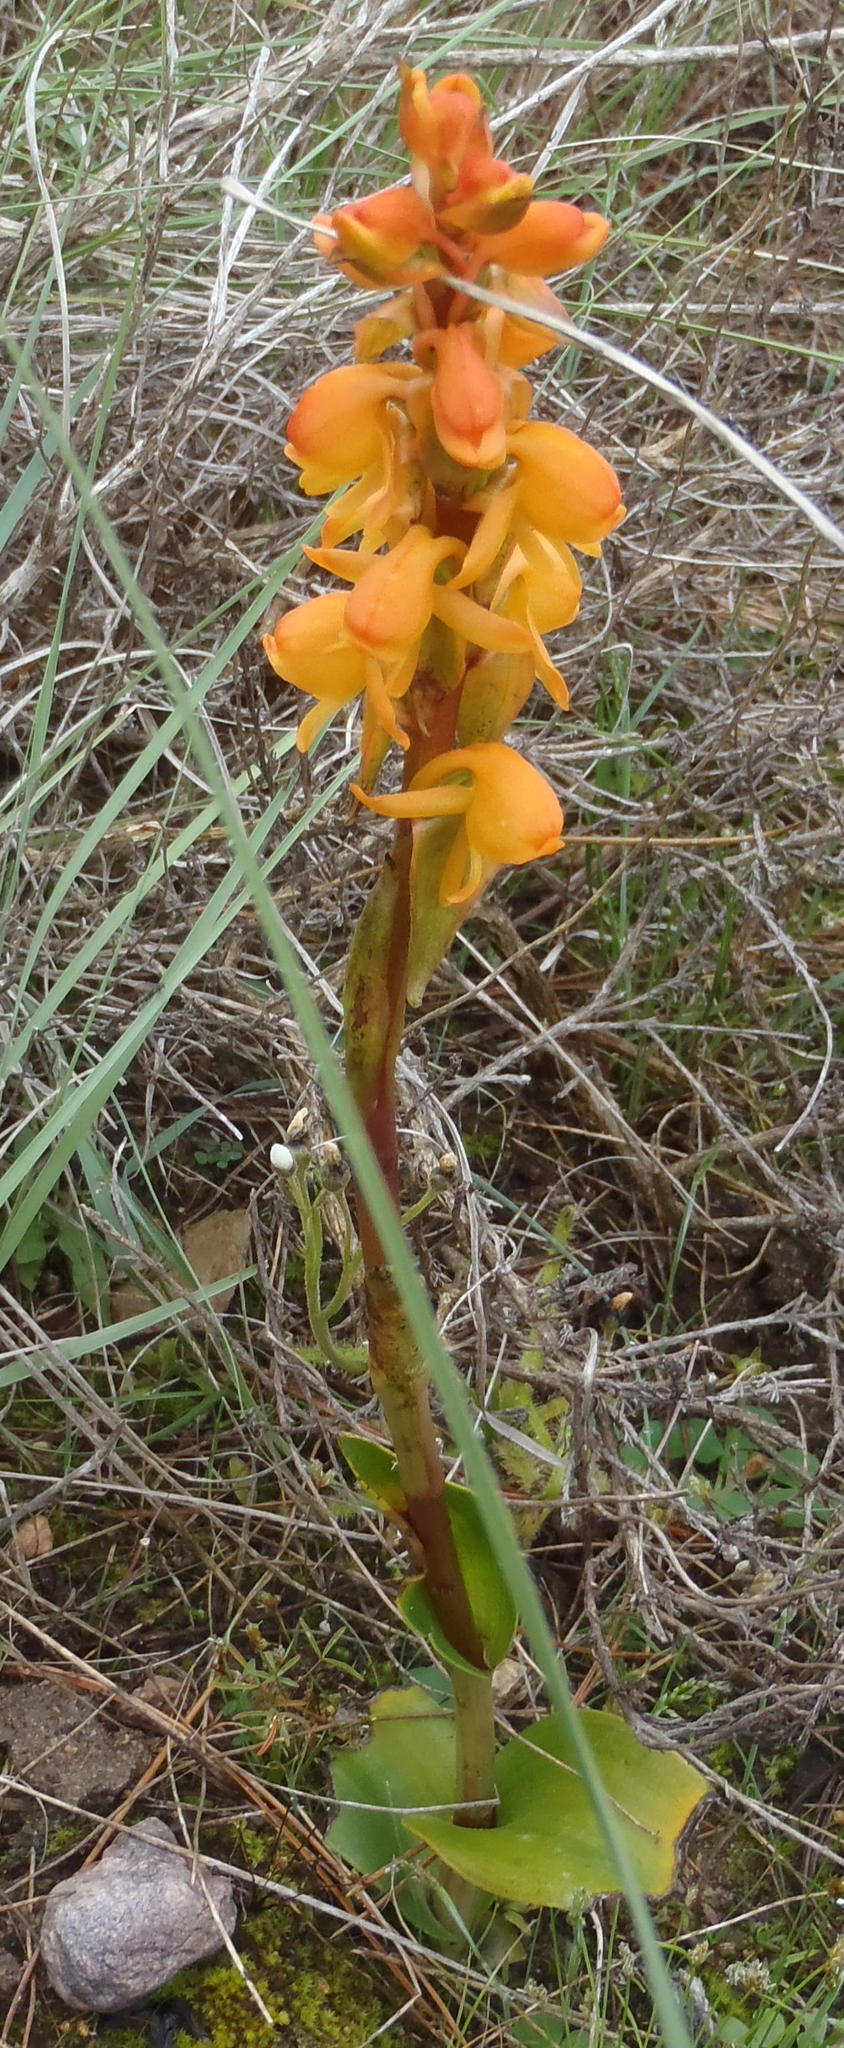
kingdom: Plantae
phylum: Tracheophyta
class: Liliopsida
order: Asparagales
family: Orchidaceae
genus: Satyrium
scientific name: Satyrium coriifolium
